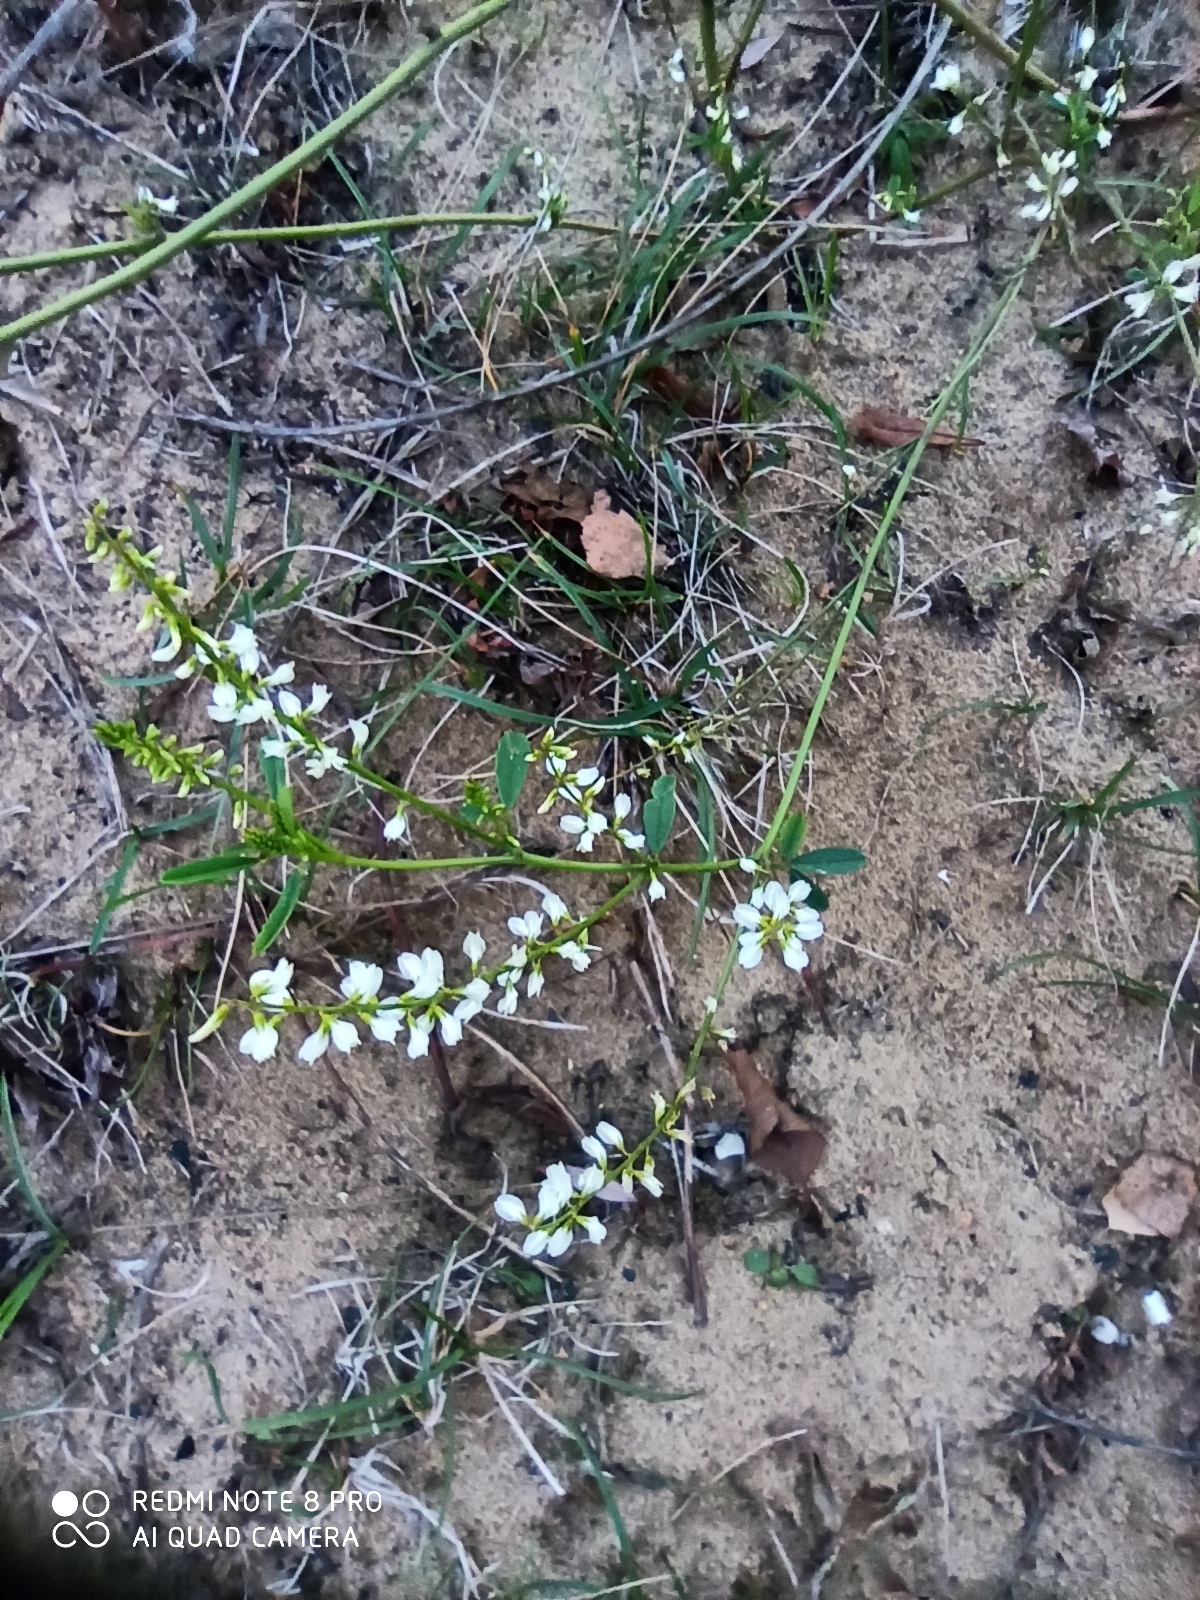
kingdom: Plantae
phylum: Tracheophyta
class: Magnoliopsida
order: Fabales
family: Fabaceae
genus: Melilotus
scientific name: Melilotus albus
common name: White melilot
